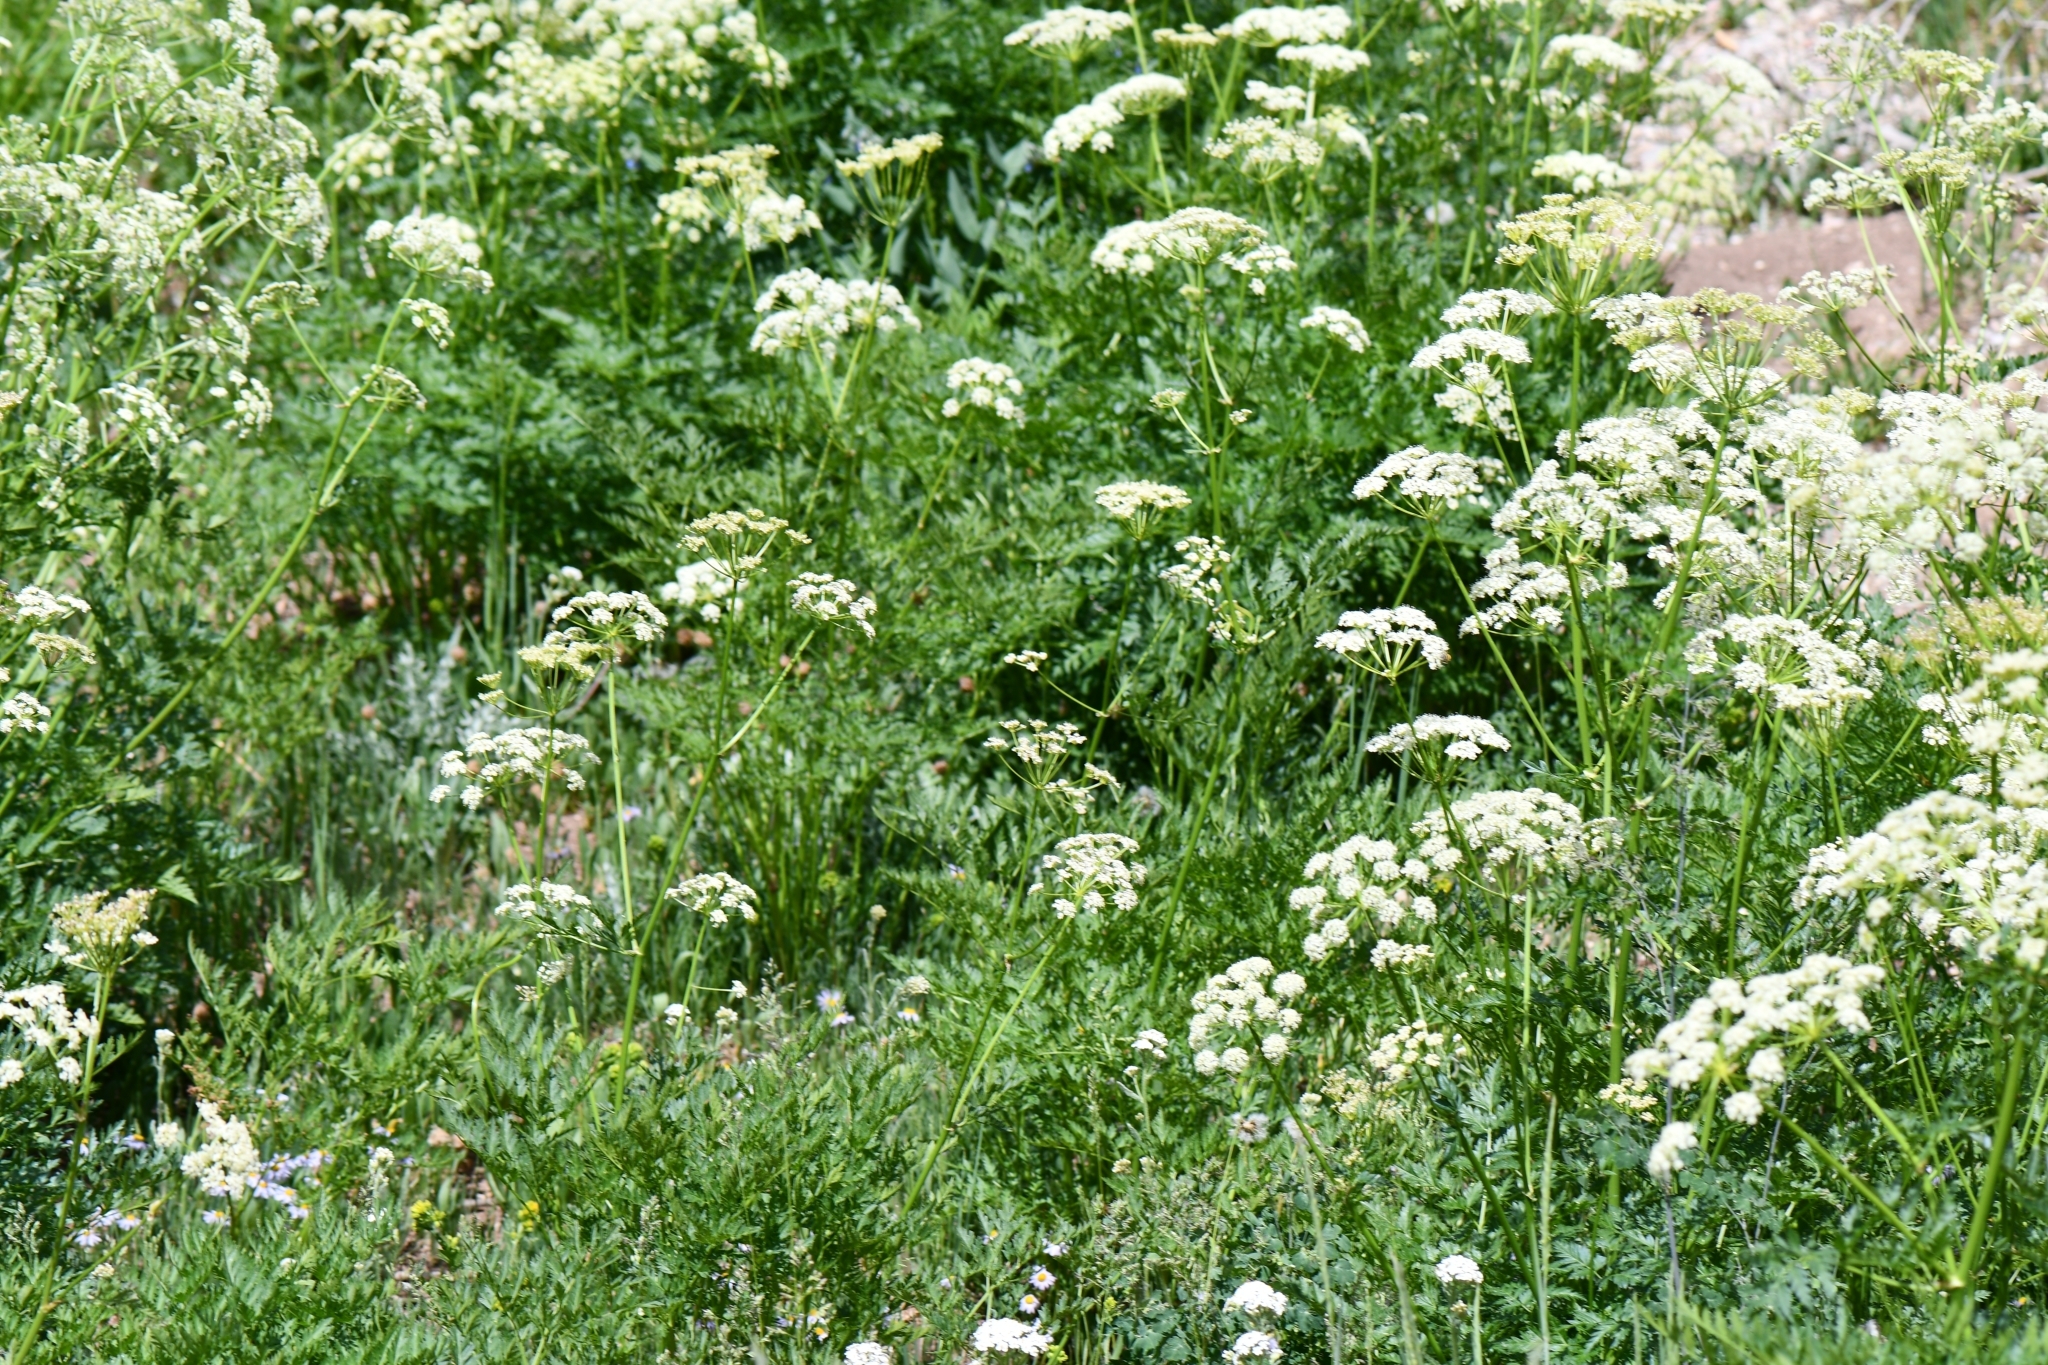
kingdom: Plantae
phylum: Tracheophyta
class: Magnoliopsida
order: Apiales
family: Apiaceae
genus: Ligusticum
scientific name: Ligusticum porteri
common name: Mountain lovage
